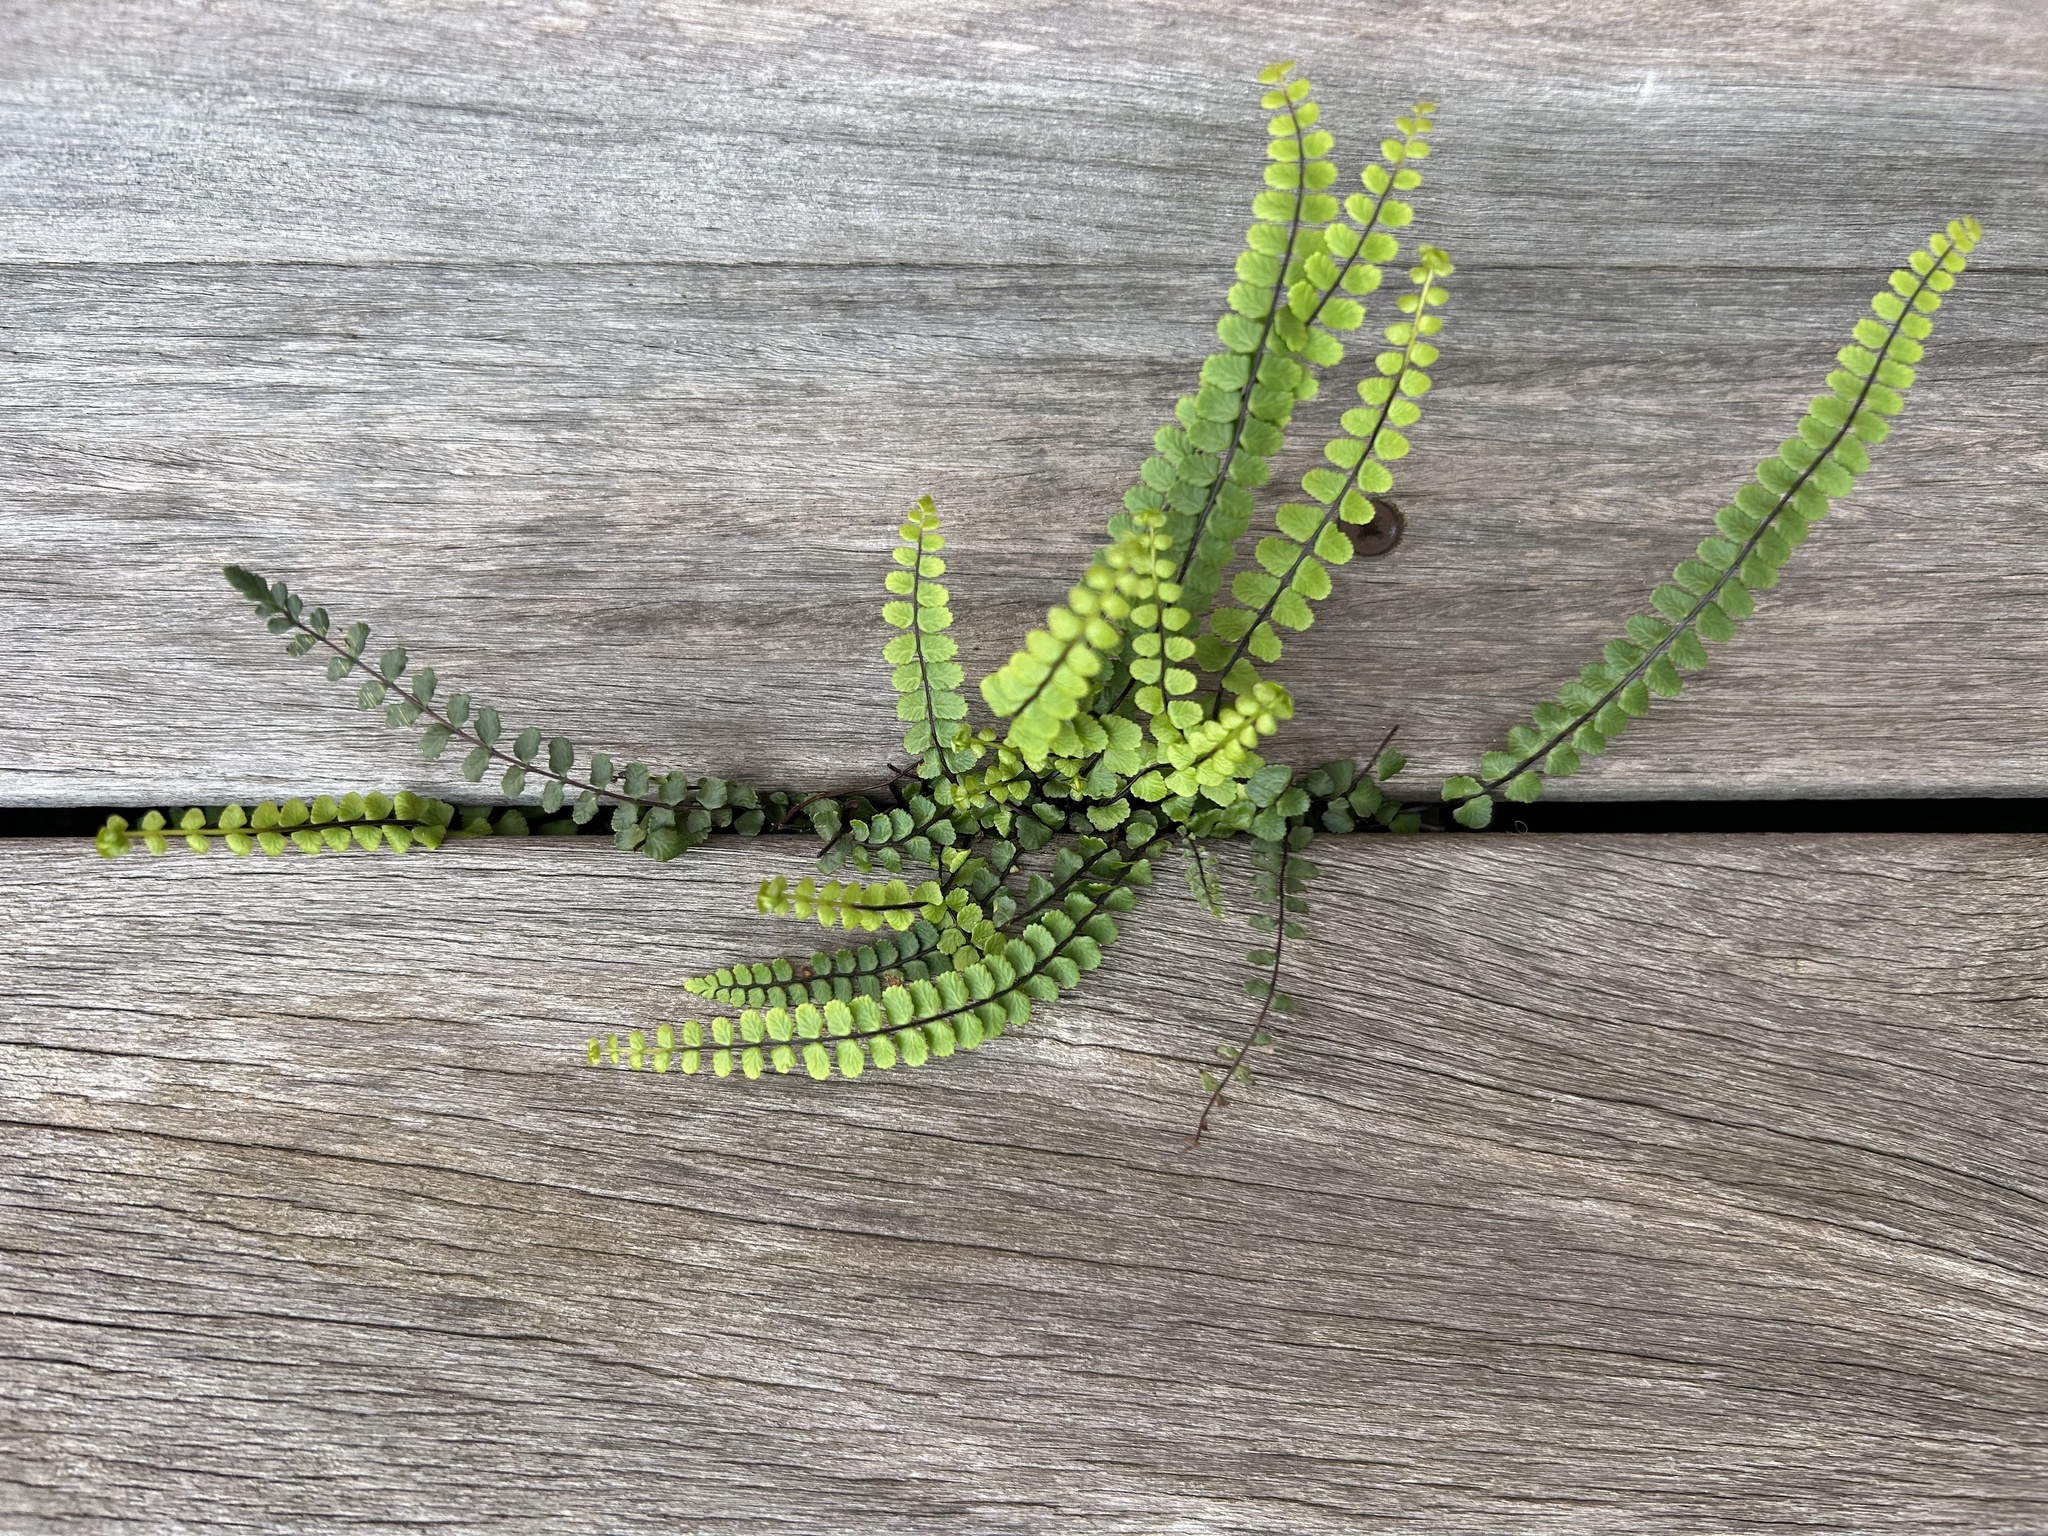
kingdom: Plantae
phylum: Tracheophyta
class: Polypodiopsida
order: Polypodiales
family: Aspleniaceae
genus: Asplenium
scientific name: Asplenium trichomanes
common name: Maidenhair spleenwort
